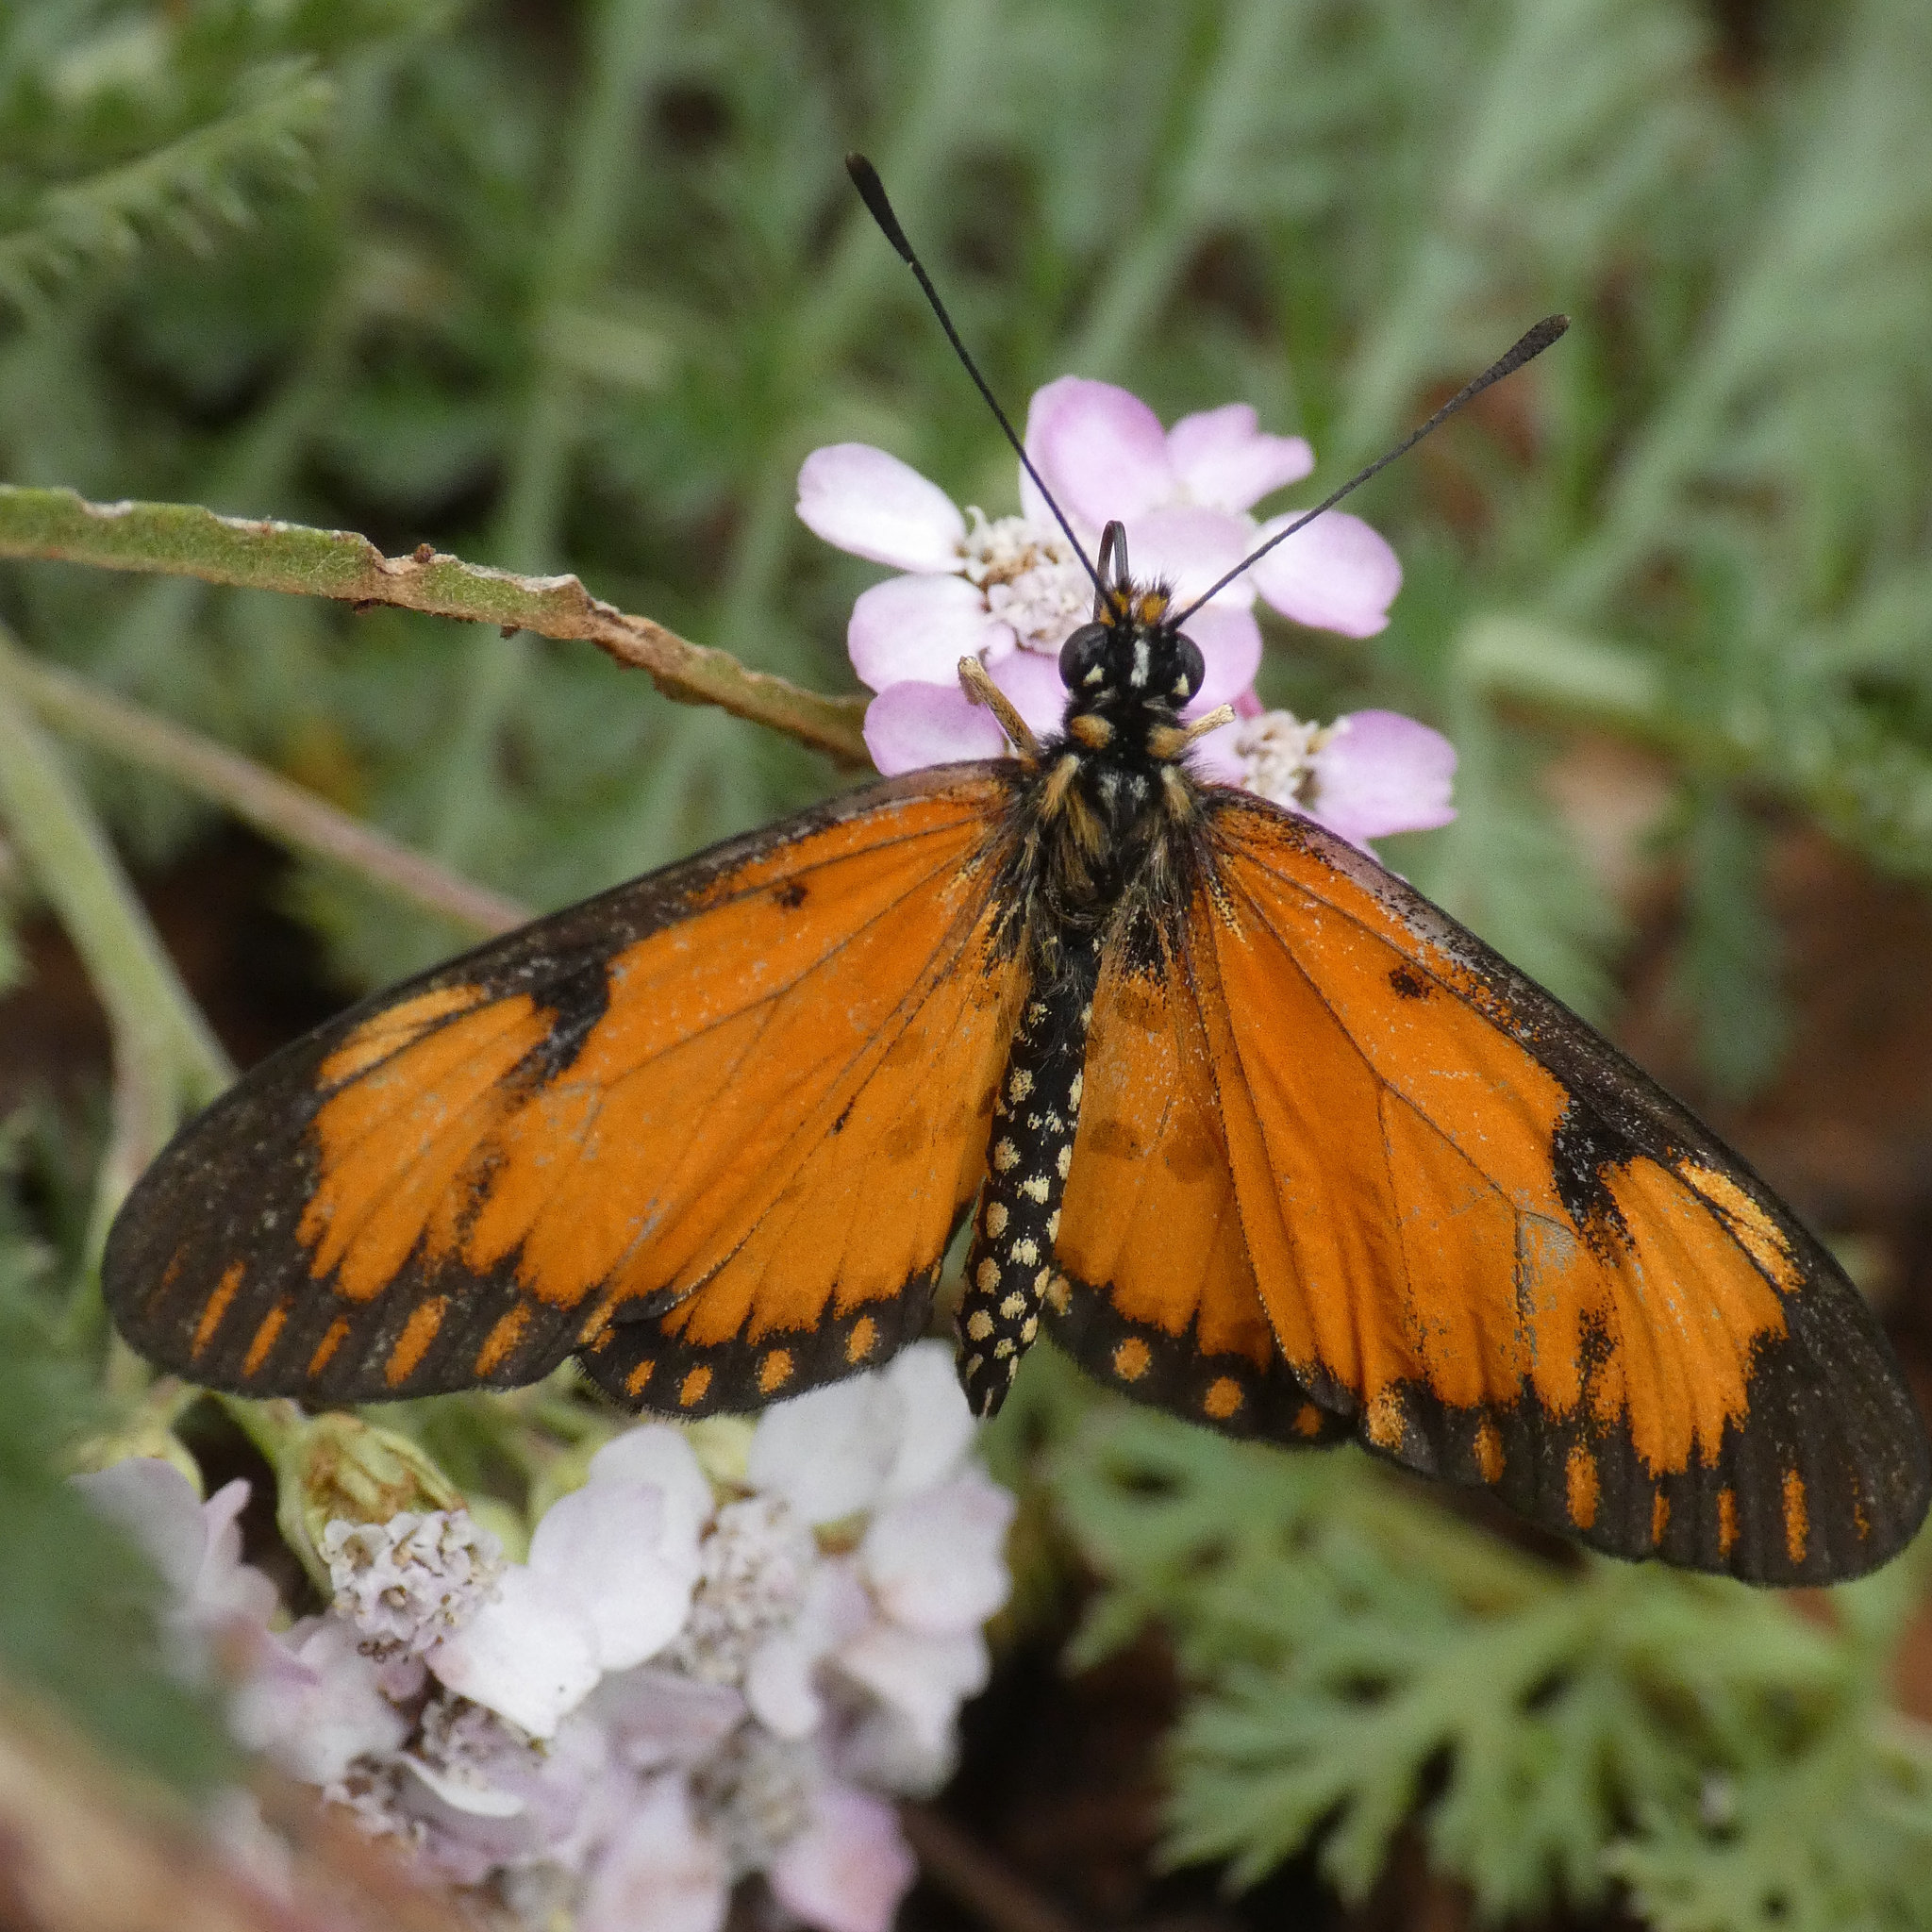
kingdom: Animalia
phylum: Arthropoda
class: Insecta
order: Lepidoptera
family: Nymphalidae
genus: Acraea
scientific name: Acraea Telchinia serena
